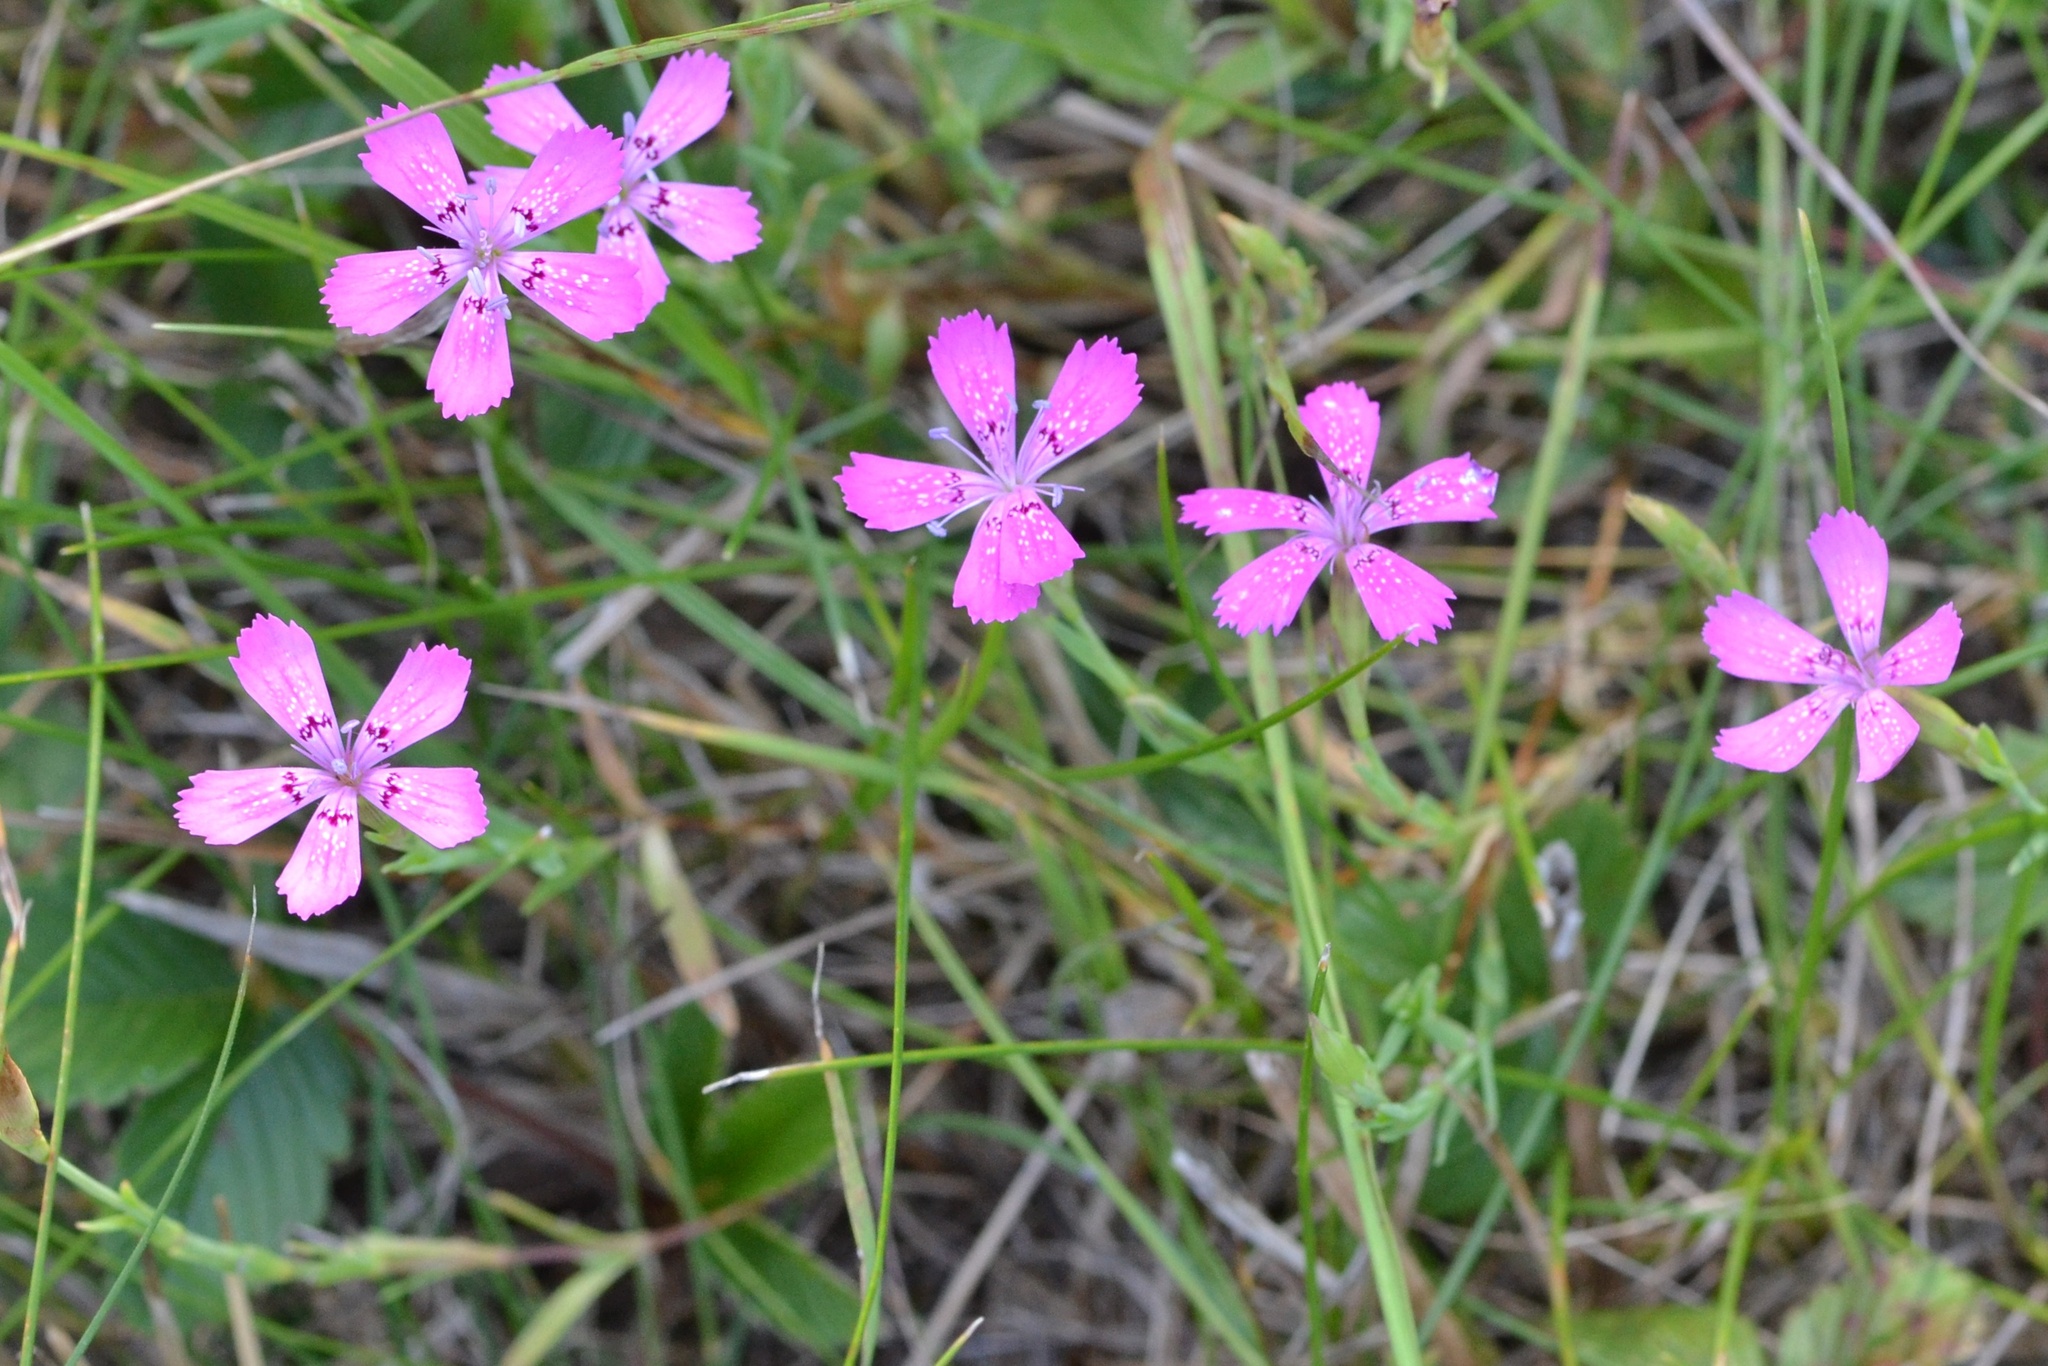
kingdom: Plantae
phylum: Tracheophyta
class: Magnoliopsida
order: Caryophyllales
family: Caryophyllaceae
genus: Dianthus
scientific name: Dianthus deltoides
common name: Maiden pink
